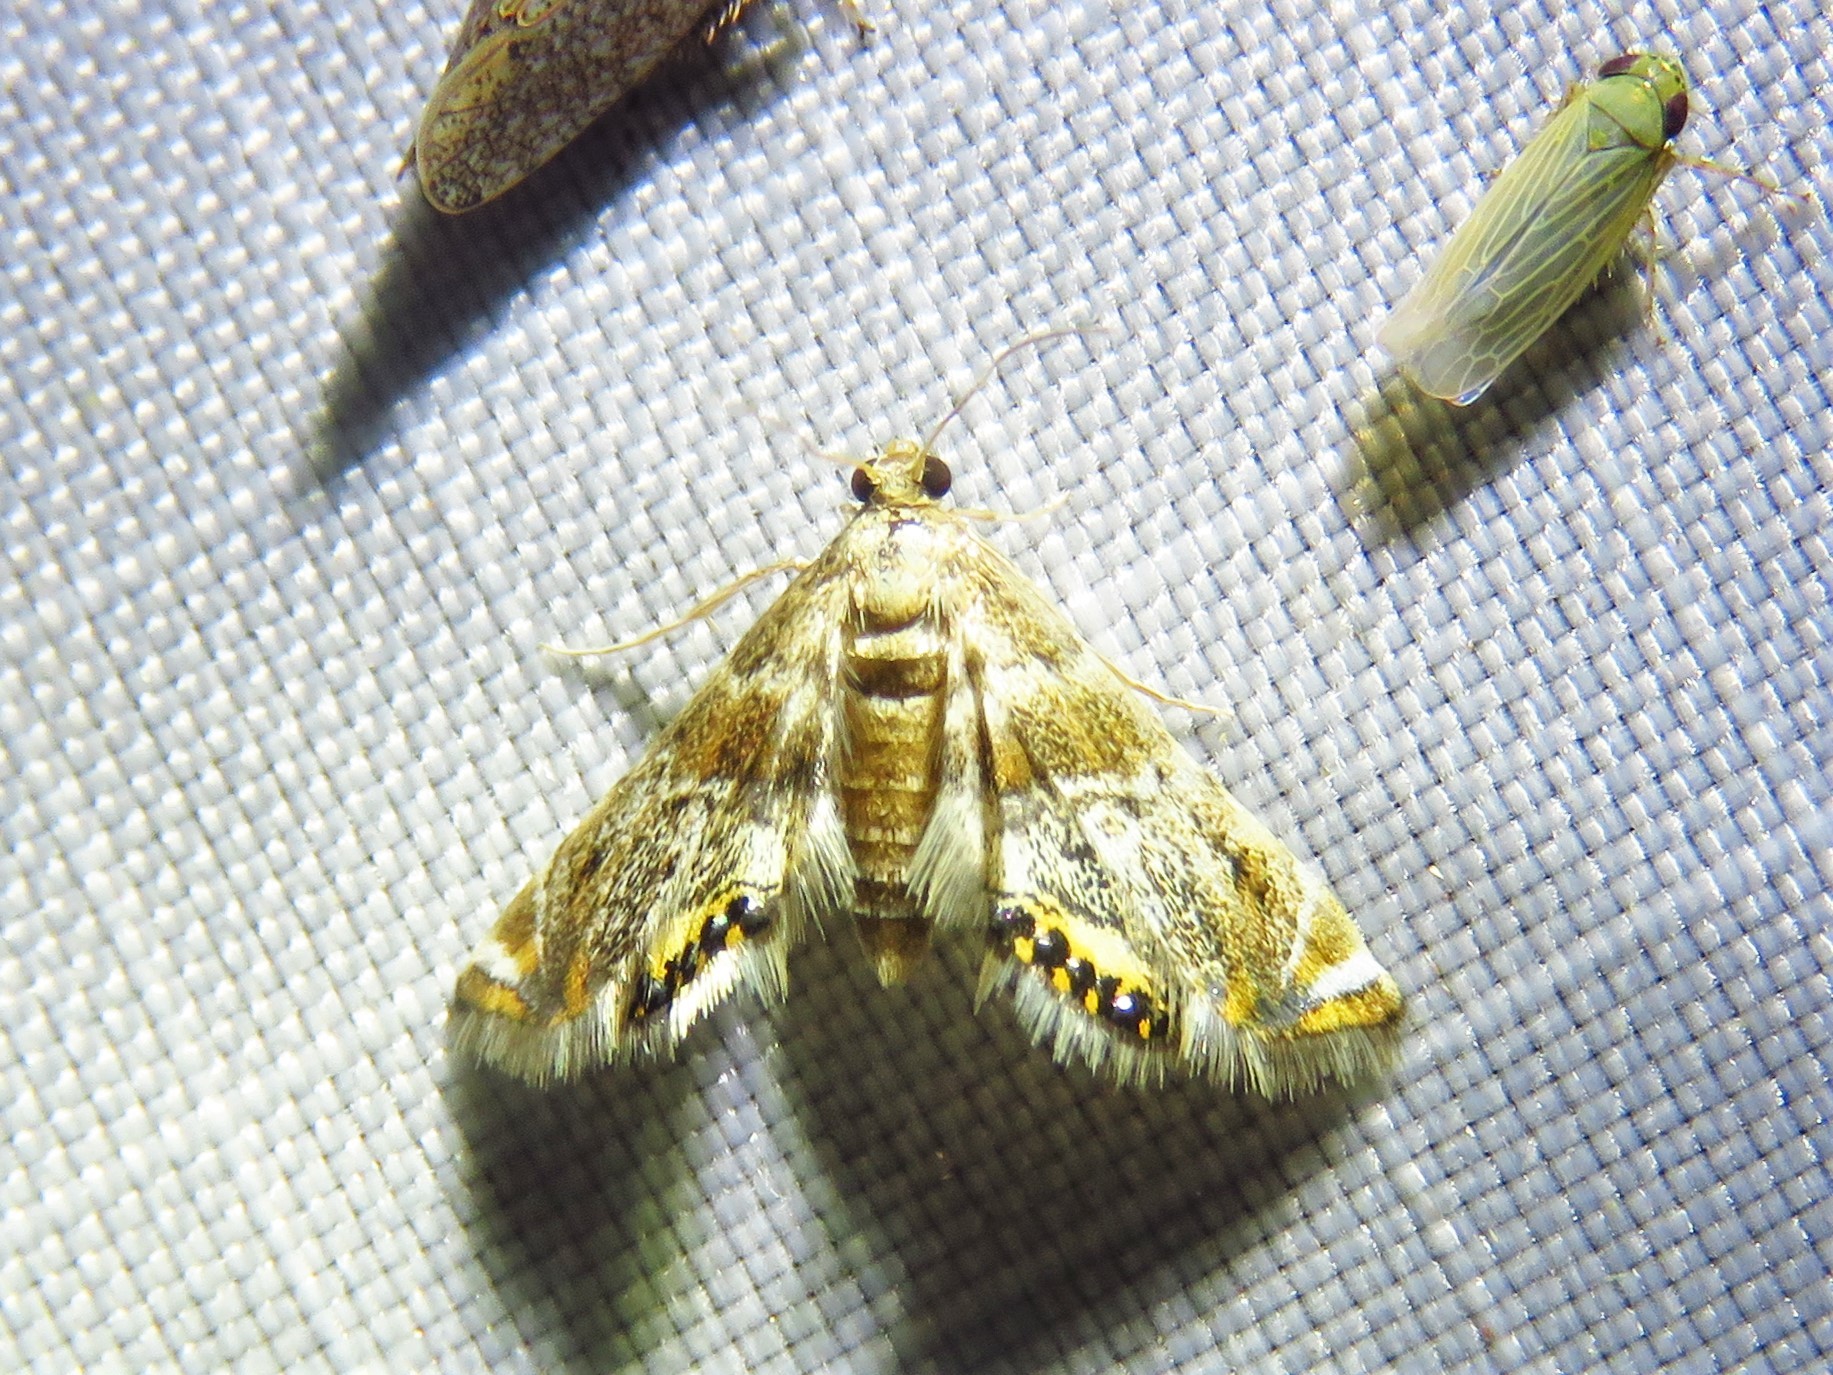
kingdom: Animalia
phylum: Arthropoda
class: Insecta
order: Lepidoptera
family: Crambidae
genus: Petrophila
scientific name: Petrophila fulicalis
